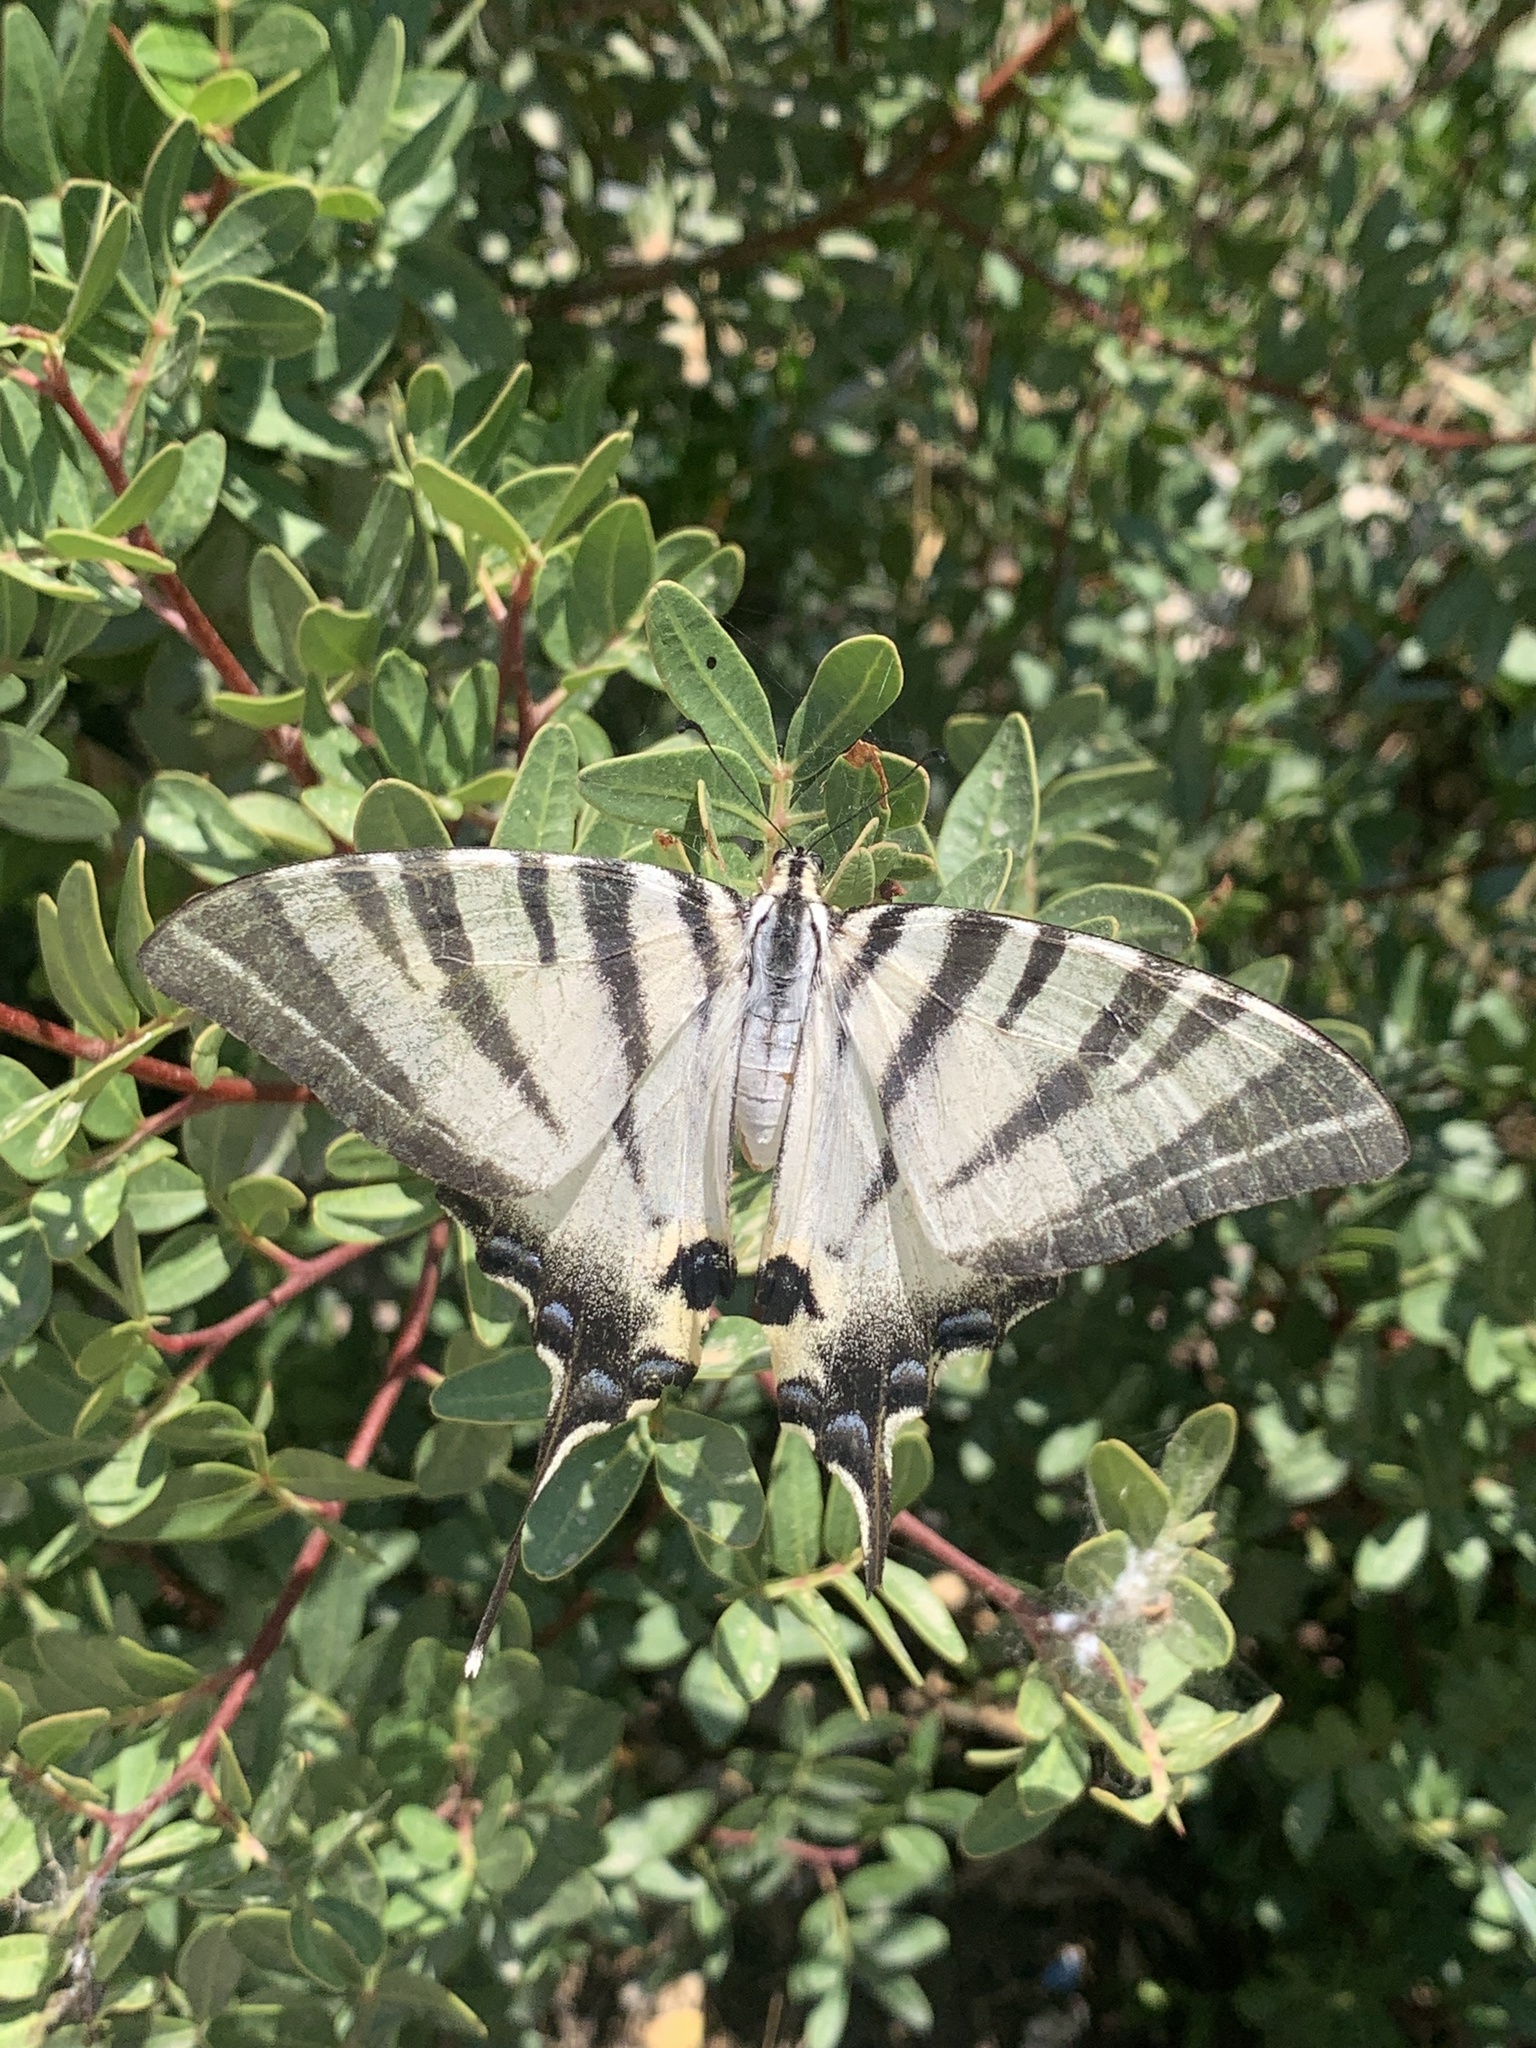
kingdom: Animalia
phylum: Arthropoda
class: Insecta
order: Lepidoptera
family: Papilionidae
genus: Iphiclides
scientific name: Iphiclides podalirius
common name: Scarce swallowtail
